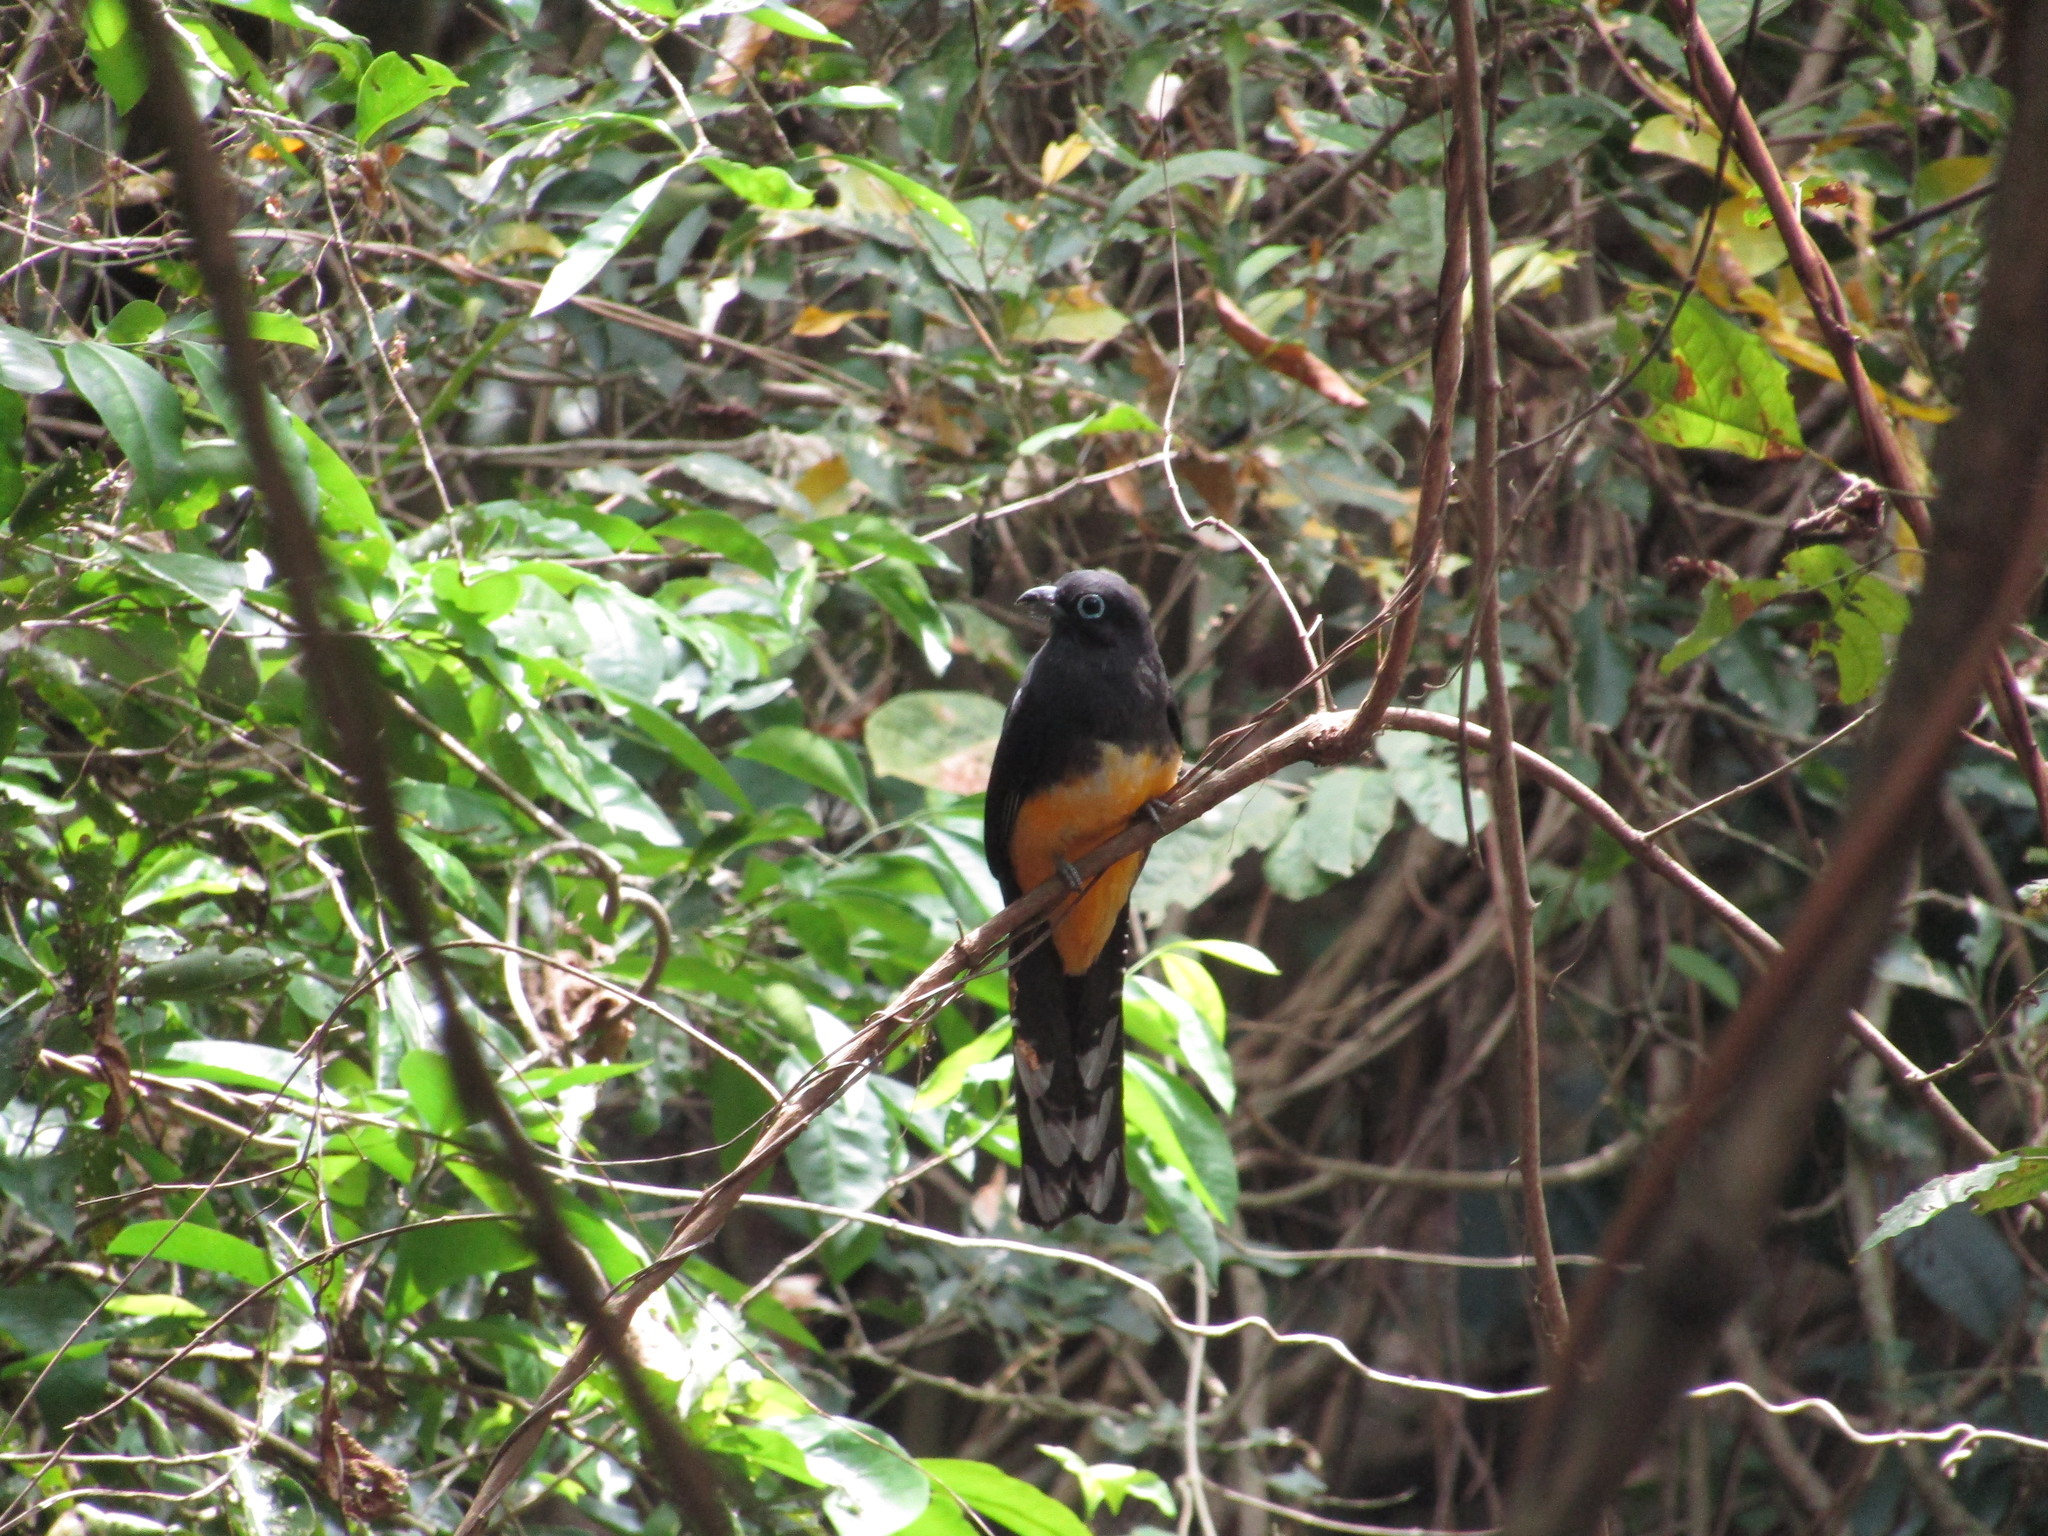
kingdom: Animalia
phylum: Chordata
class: Aves
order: Trogoniformes
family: Trogonidae
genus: Trogon
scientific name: Trogon melanocephalus
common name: Black-headed trogon
